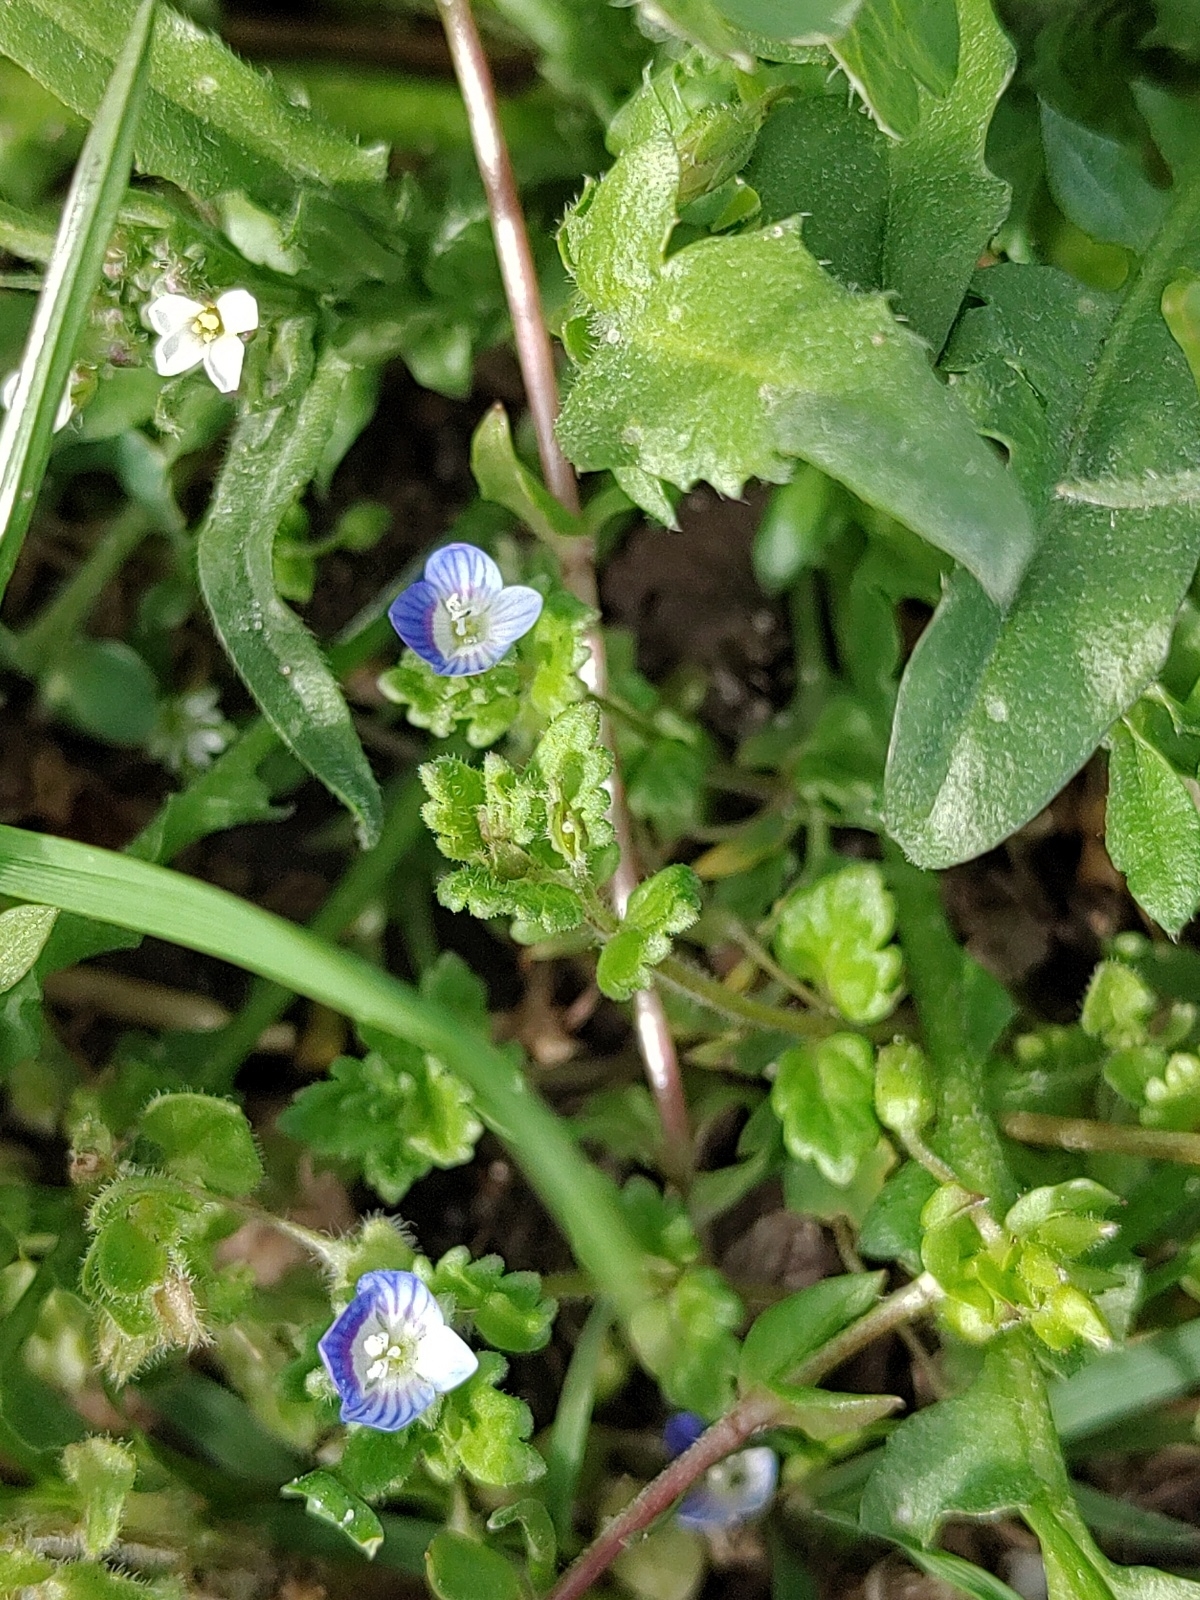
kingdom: Plantae
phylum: Tracheophyta
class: Magnoliopsida
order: Lamiales
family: Plantaginaceae
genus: Veronica
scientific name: Veronica persica
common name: Common field-speedwell
